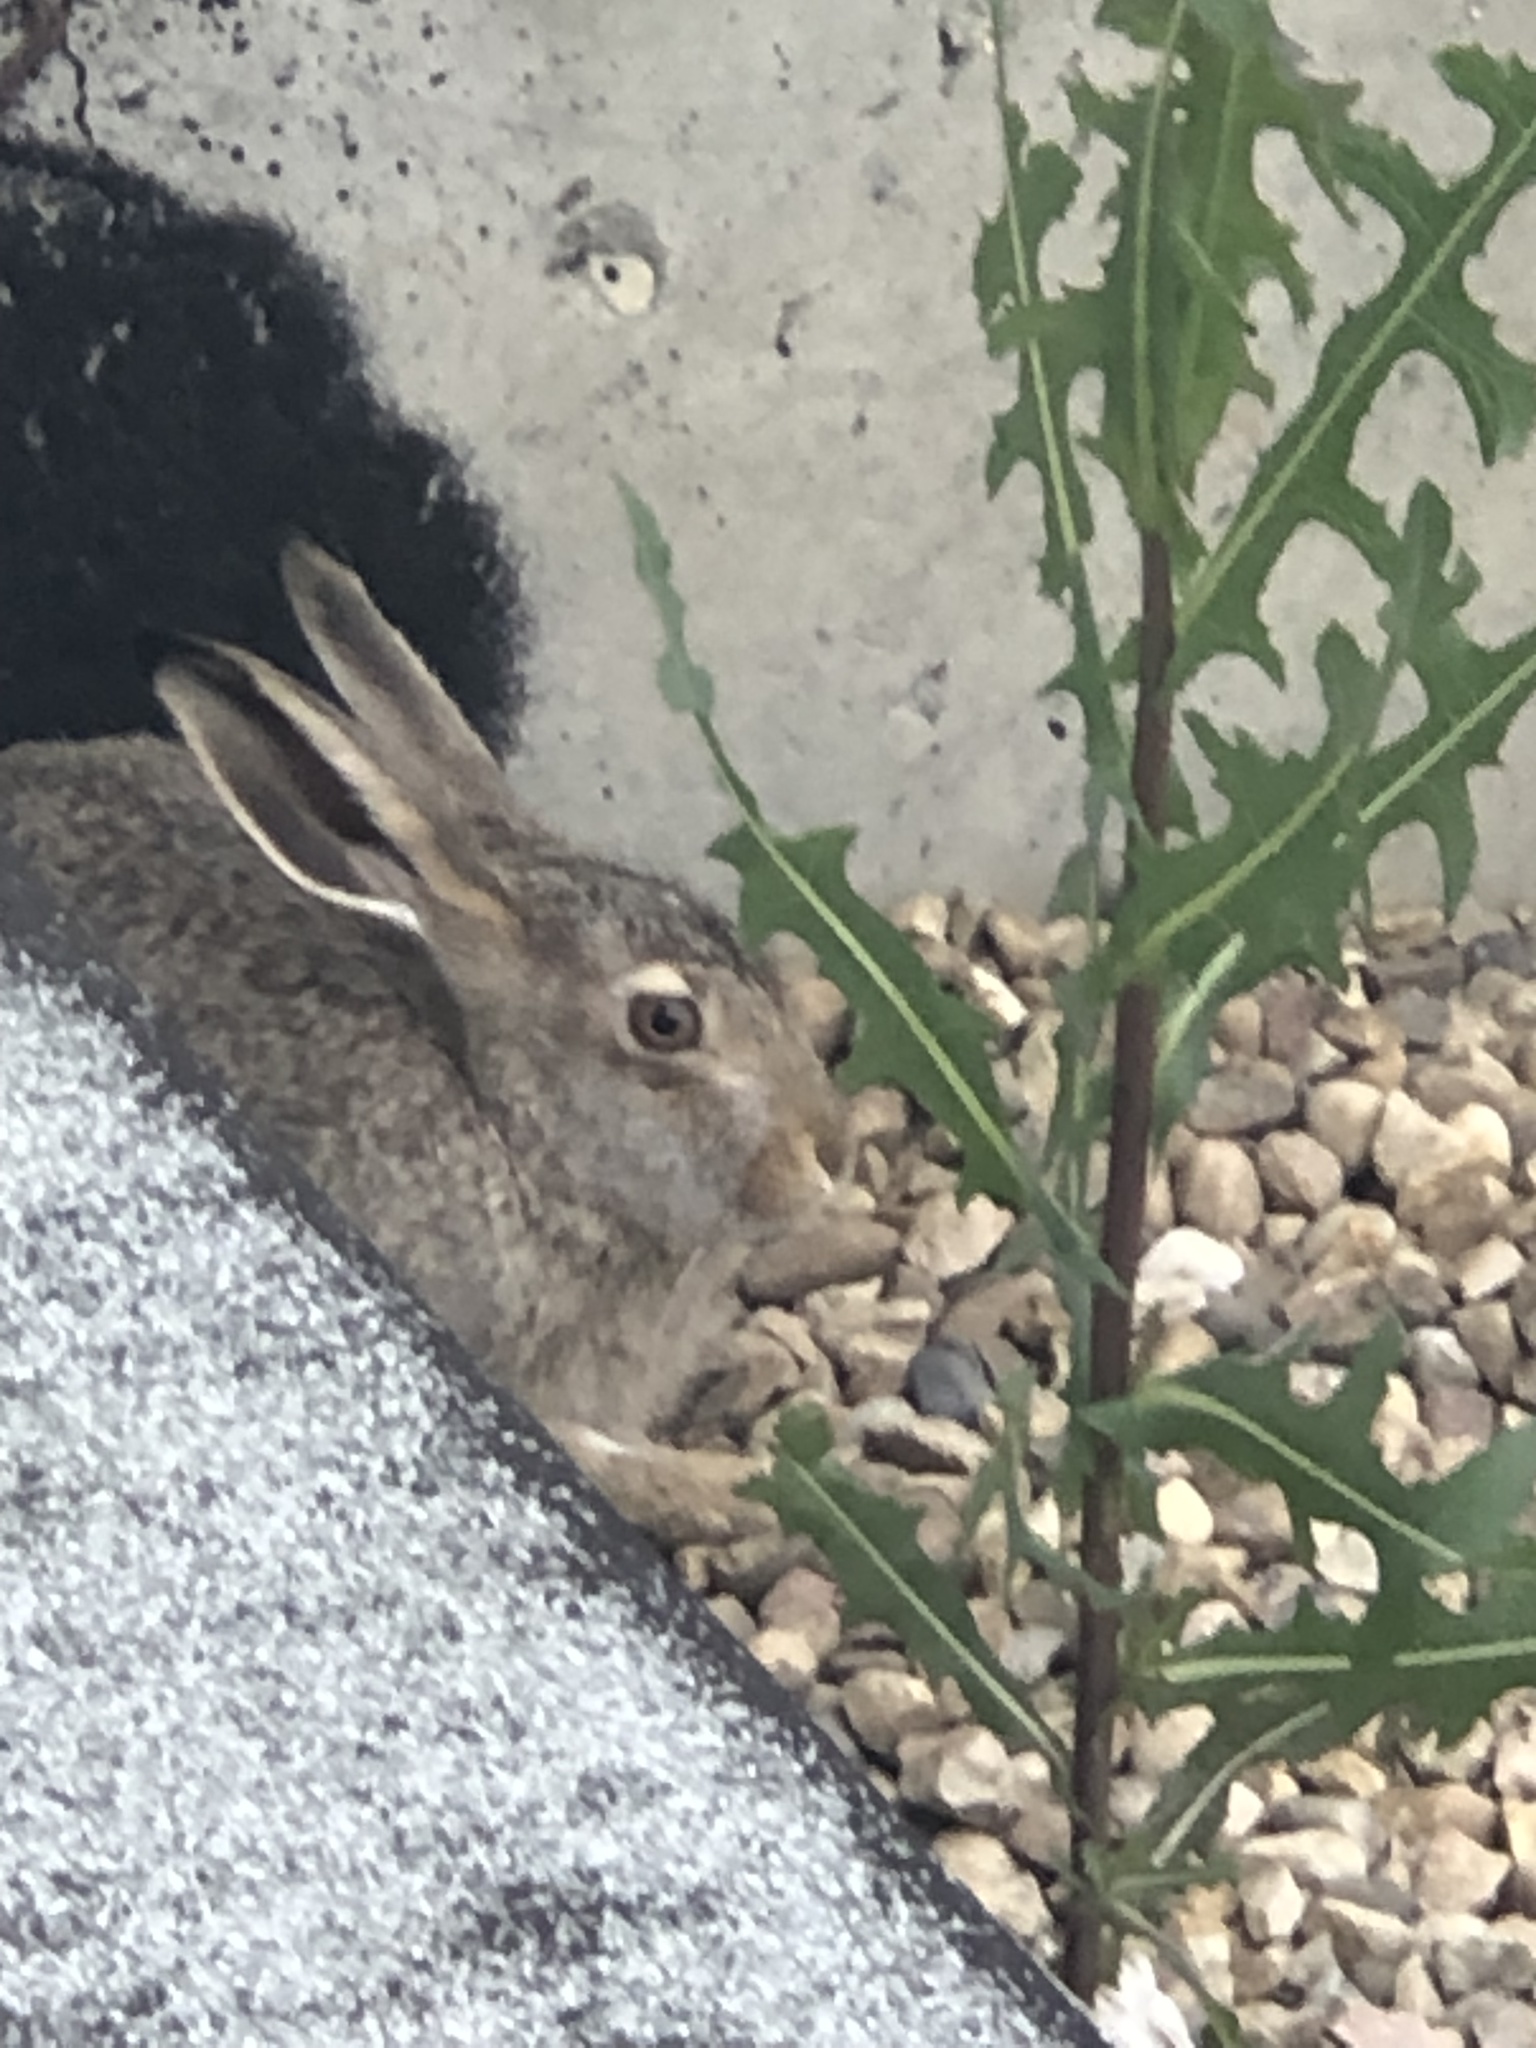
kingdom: Animalia
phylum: Chordata
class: Mammalia
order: Lagomorpha
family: Leporidae
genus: Lepus
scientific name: Lepus townsendii
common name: White-tailed jackrabbit
